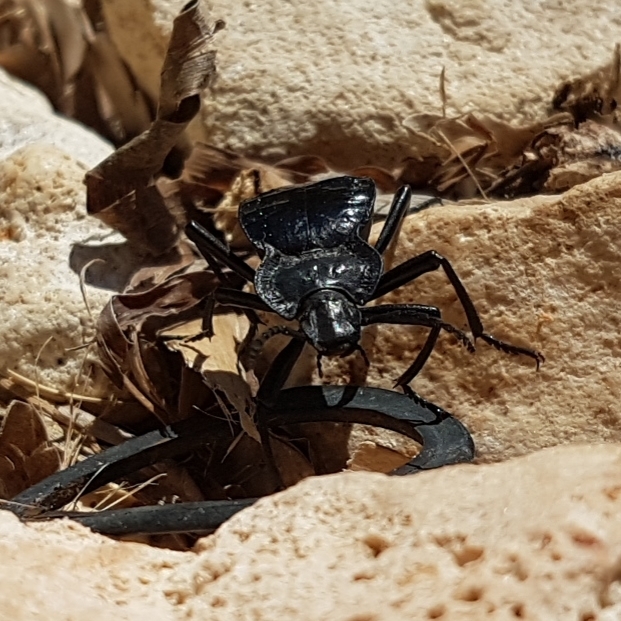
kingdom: Animalia
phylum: Arthropoda
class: Insecta
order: Coleoptera
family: Tenebrionidae
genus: Akis
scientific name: Akis bacarozzo
